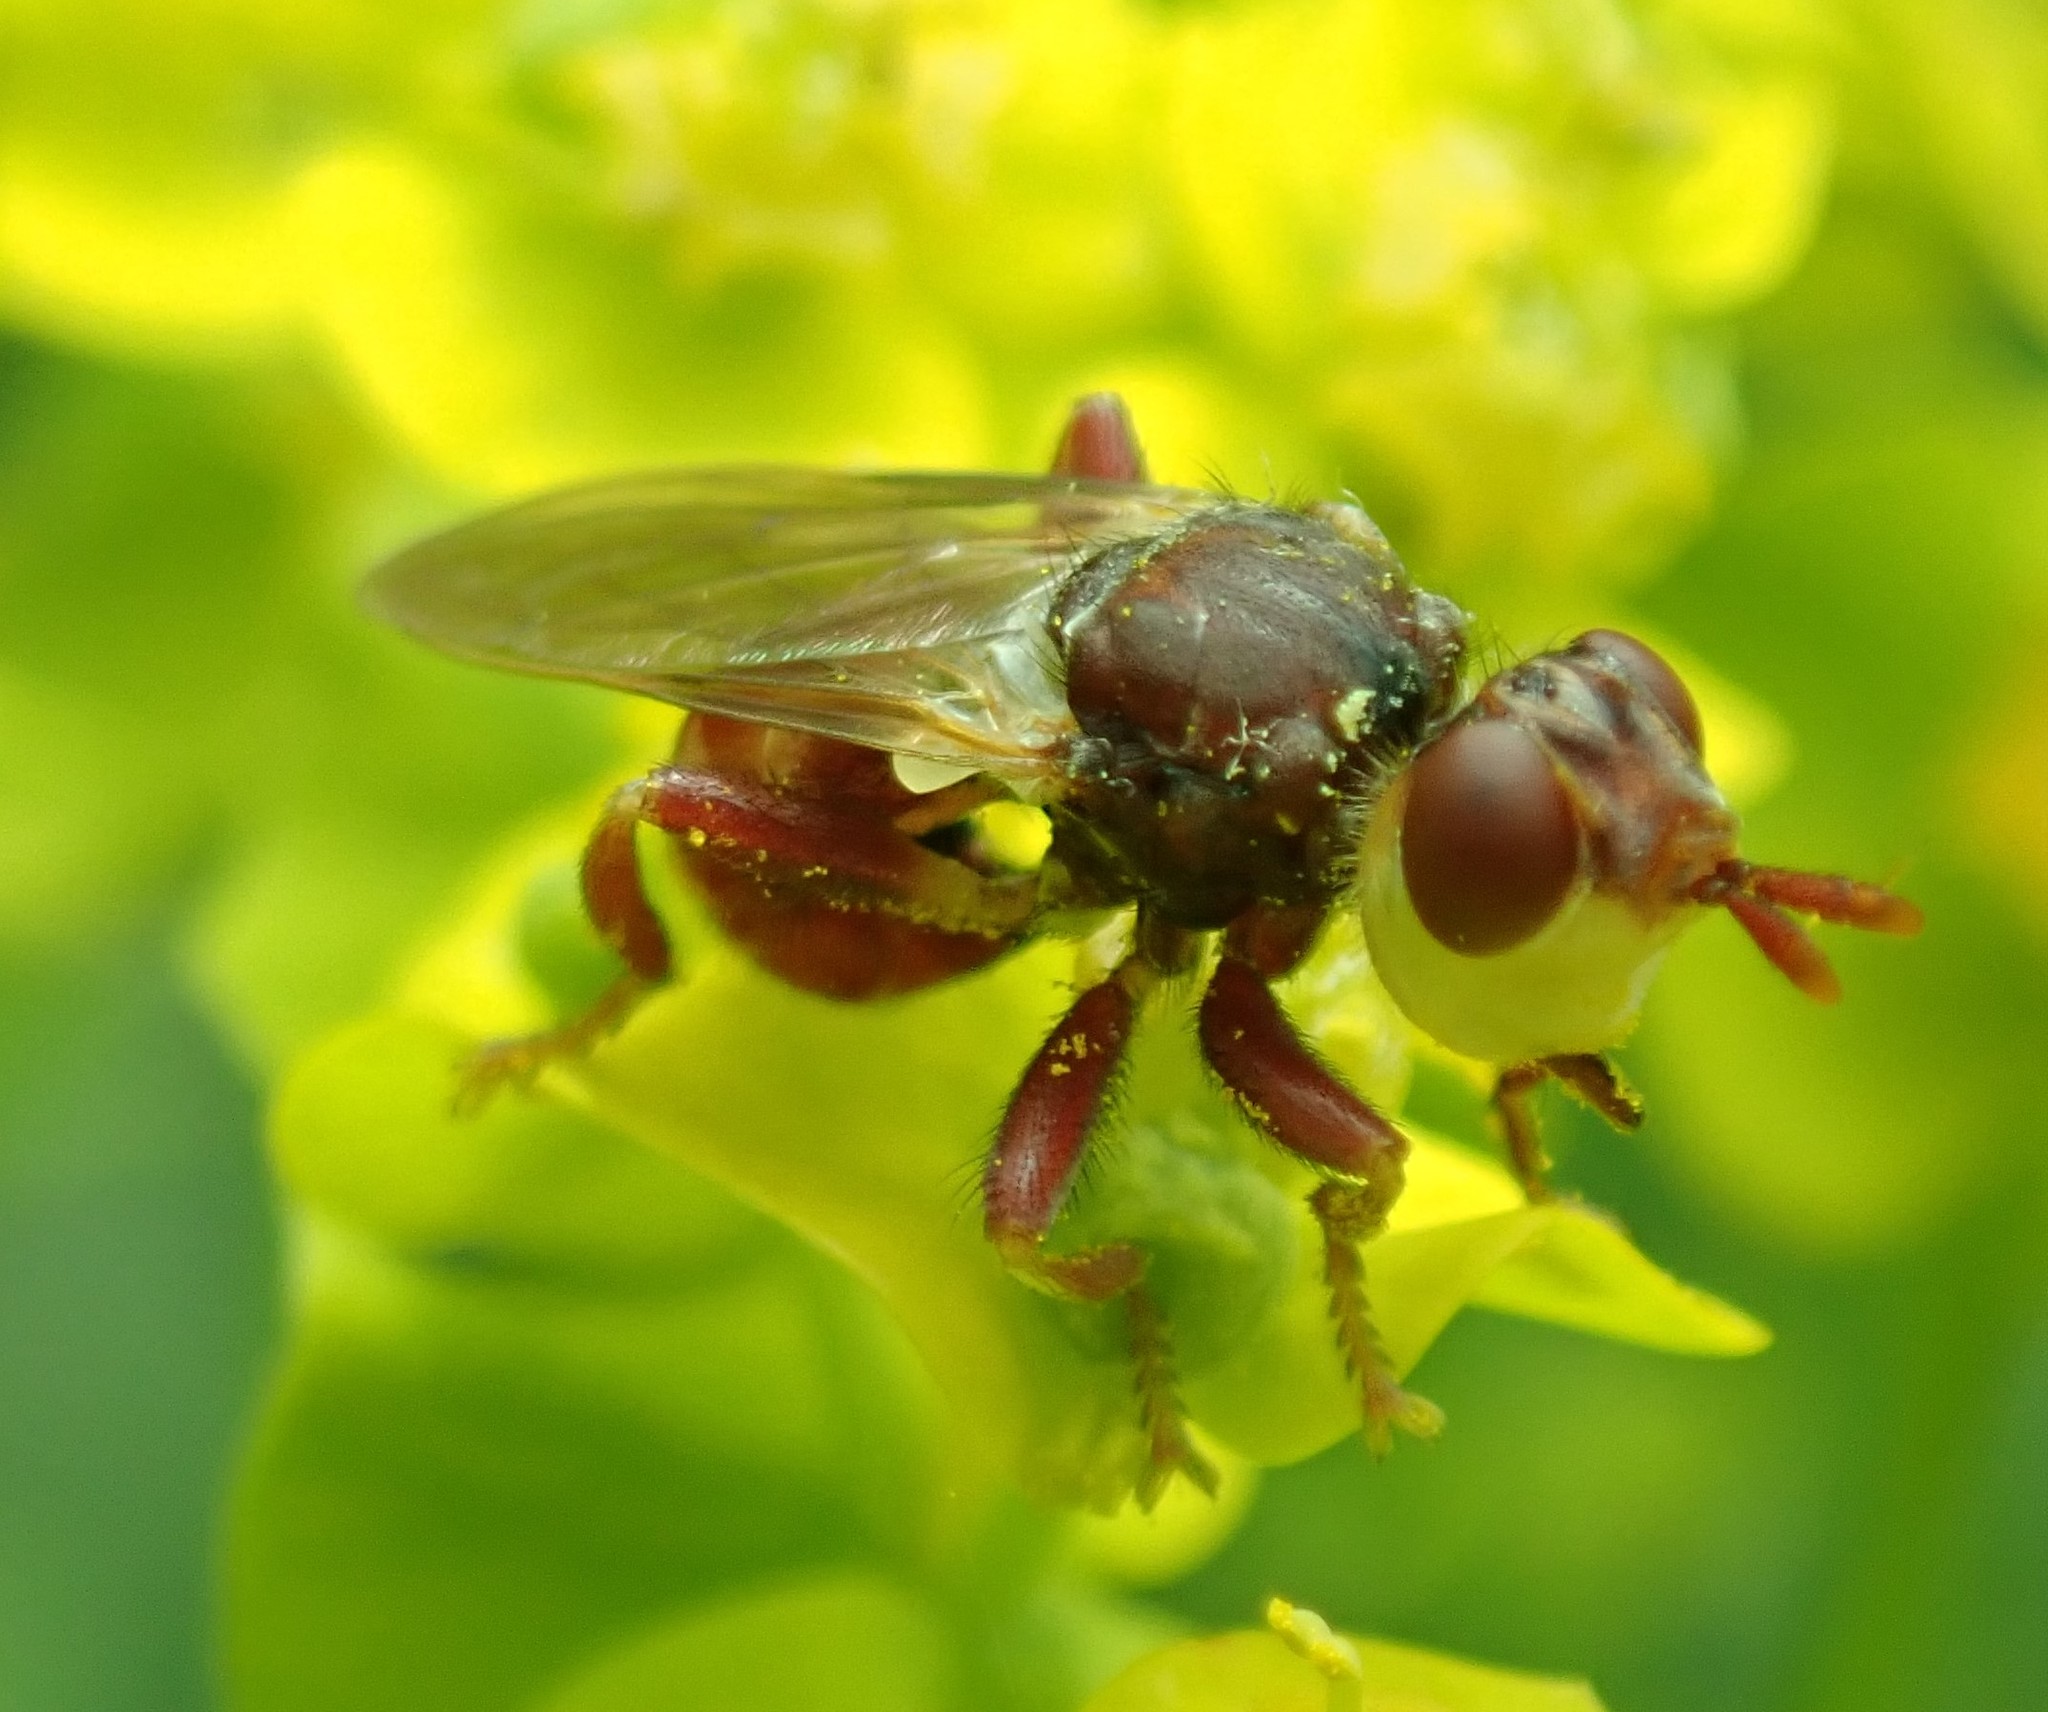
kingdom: Animalia
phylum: Arthropoda
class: Insecta
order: Diptera
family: Conopidae
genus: Myopa
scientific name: Myopa clausa
